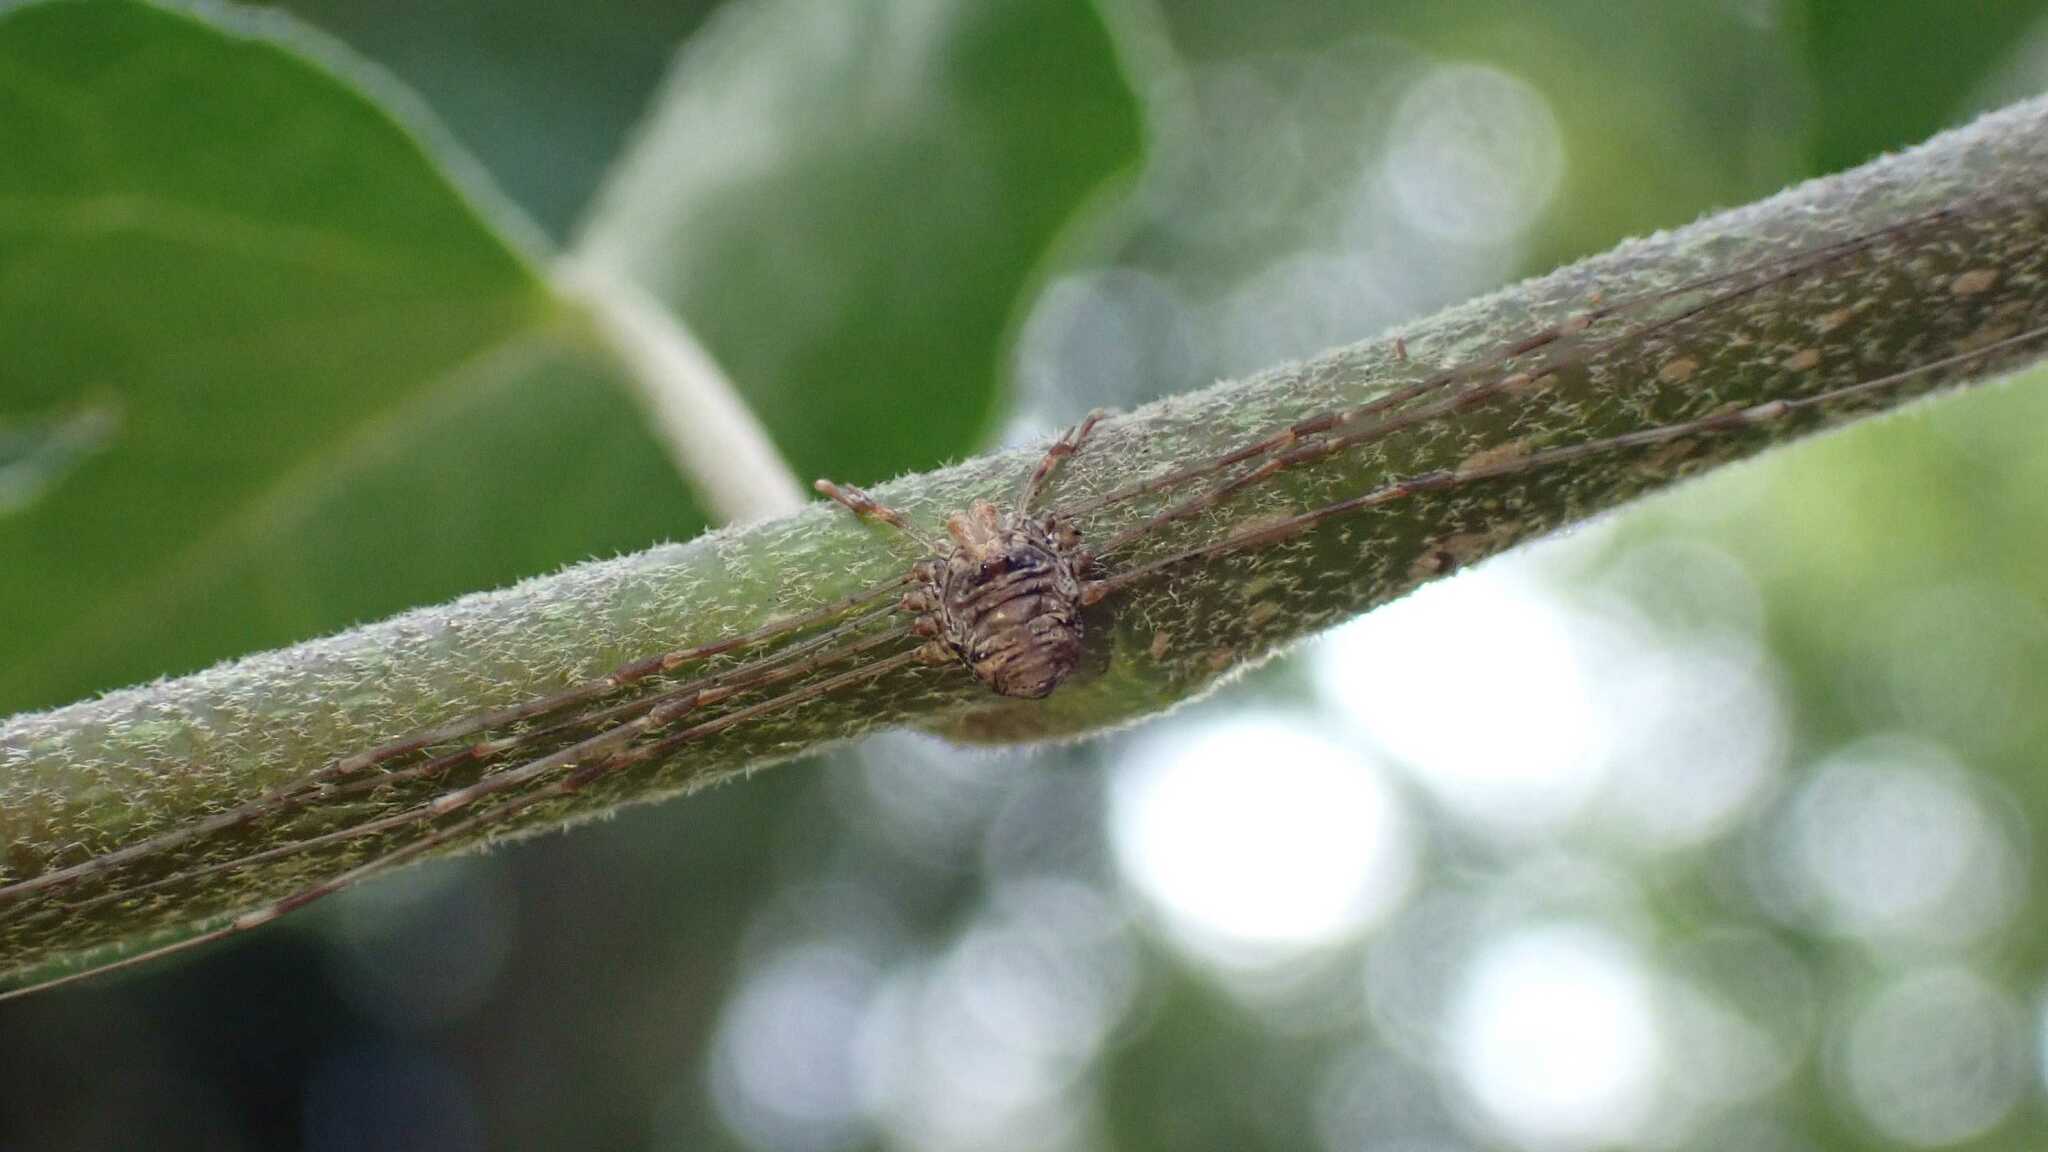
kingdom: Animalia
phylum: Arthropoda
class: Arachnida
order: Opiliones
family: Phalangiidae
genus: Dicranopalpus
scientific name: Dicranopalpus ramosus
